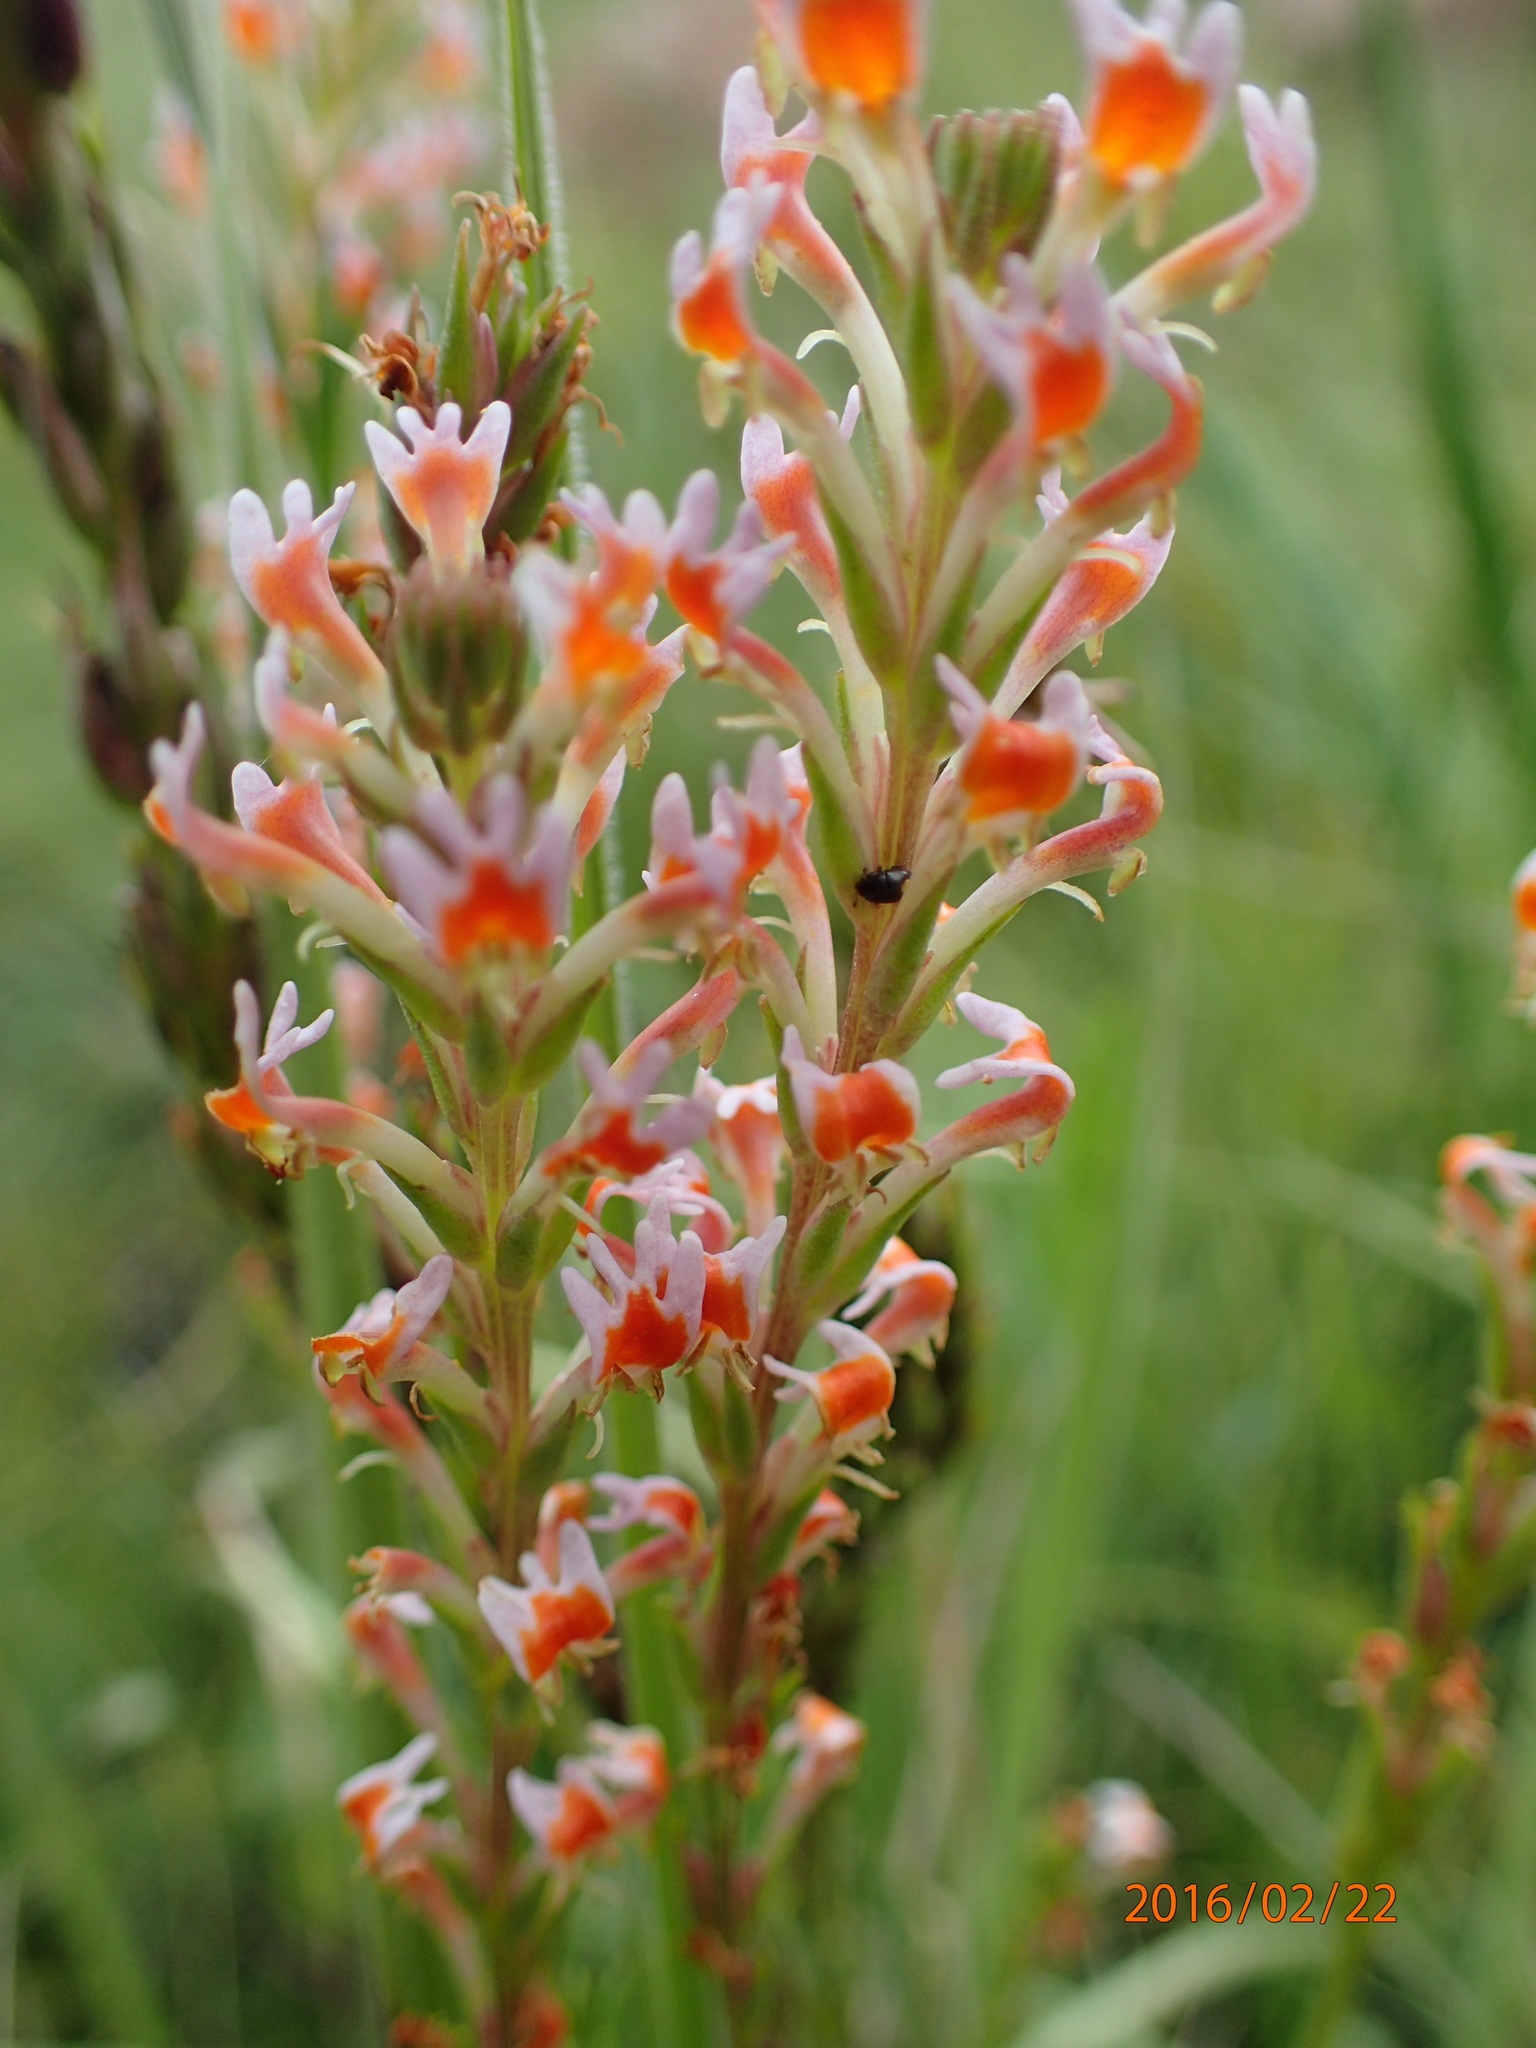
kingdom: Plantae
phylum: Tracheophyta
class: Magnoliopsida
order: Lamiales
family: Scrophulariaceae
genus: Hebenstretia
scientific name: Hebenstretia dura
